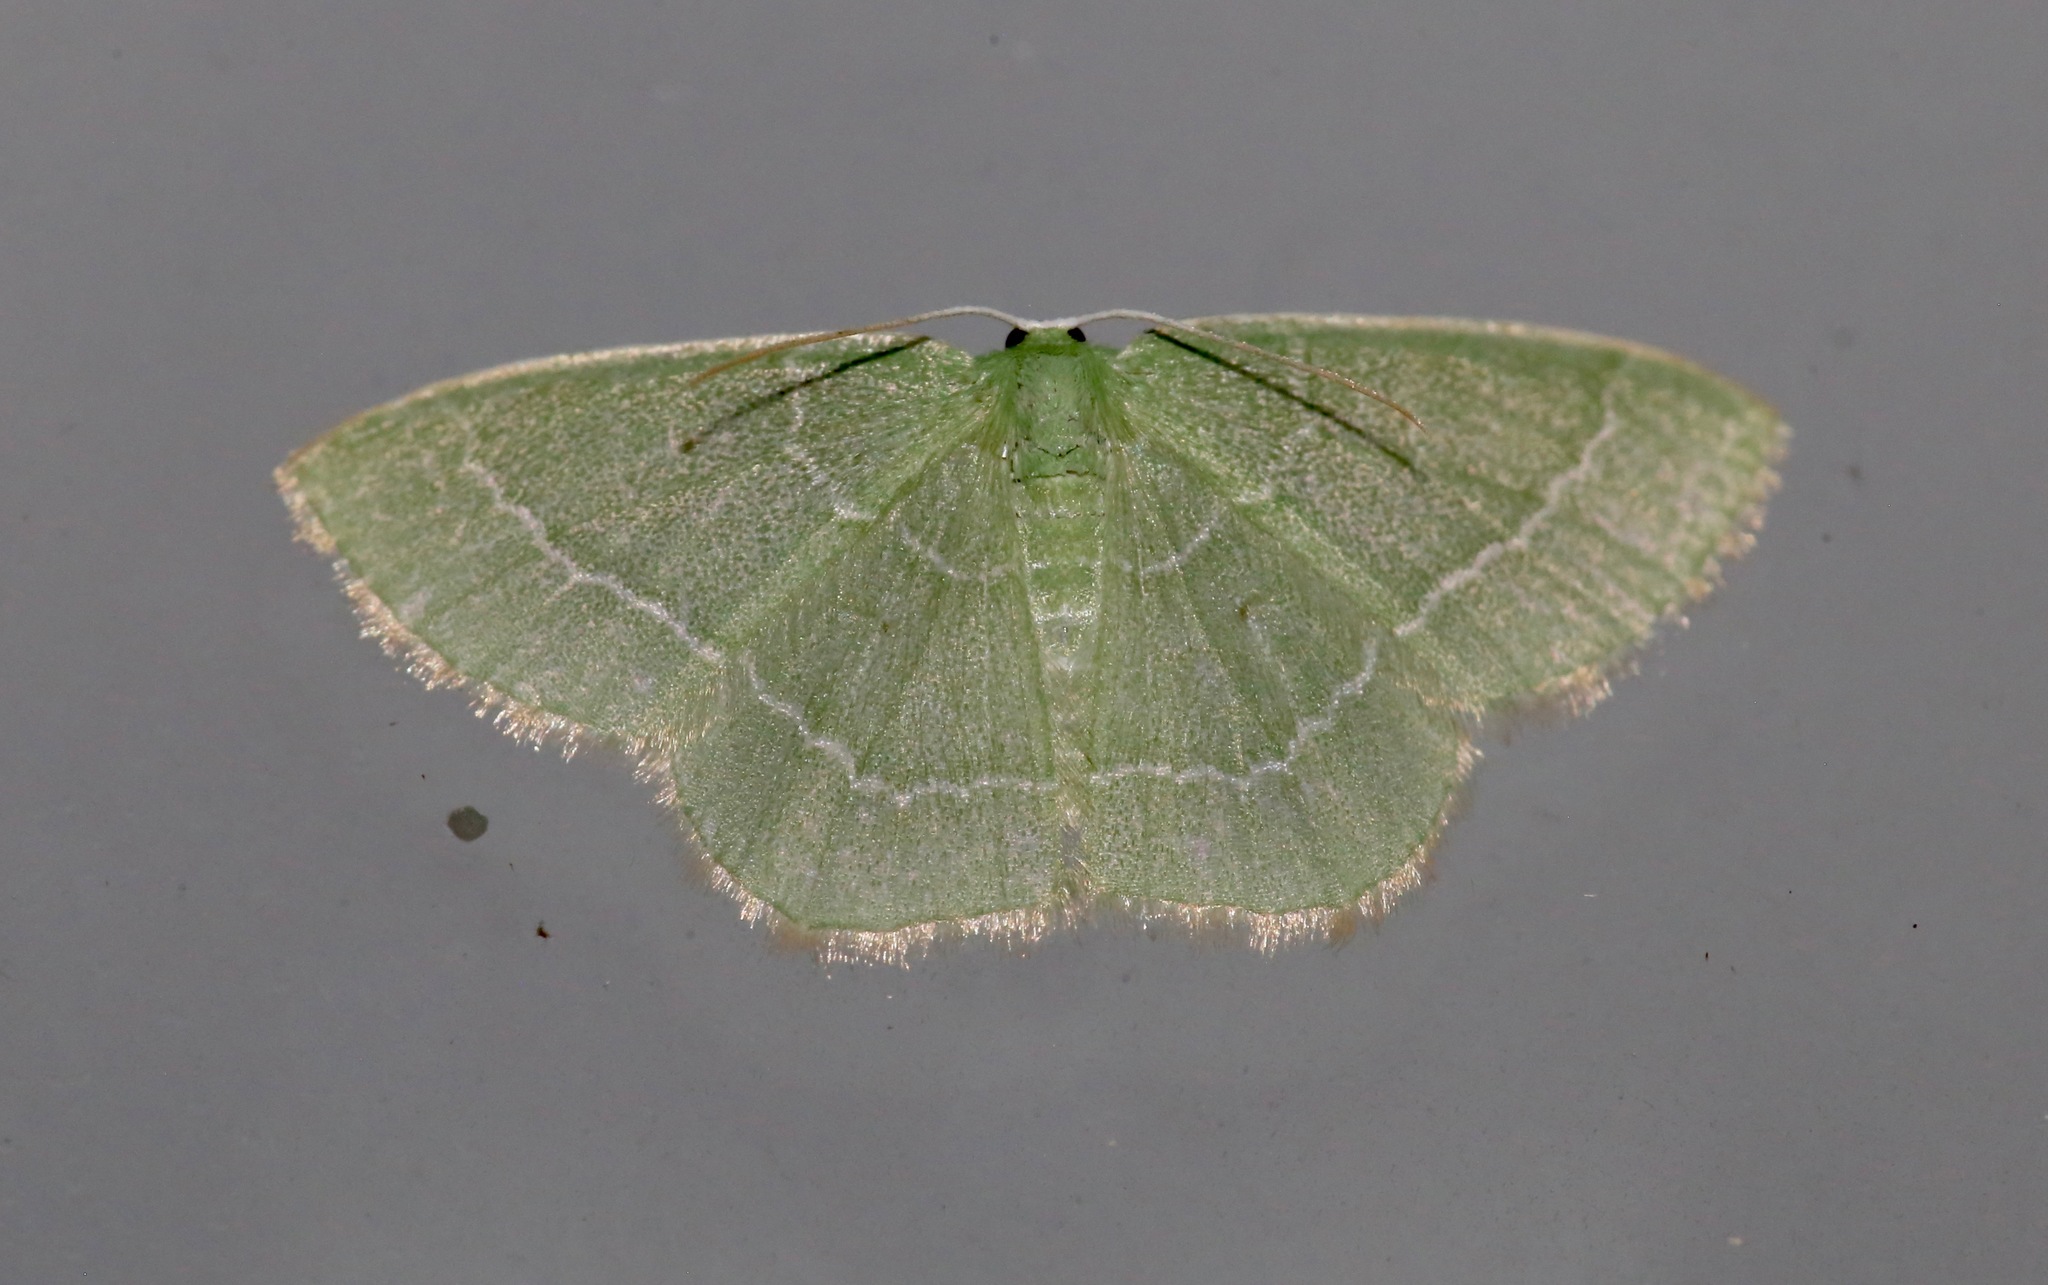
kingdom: Animalia
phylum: Arthropoda
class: Insecta
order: Lepidoptera
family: Geometridae
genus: Nemoria
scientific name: Nemoria elfa
